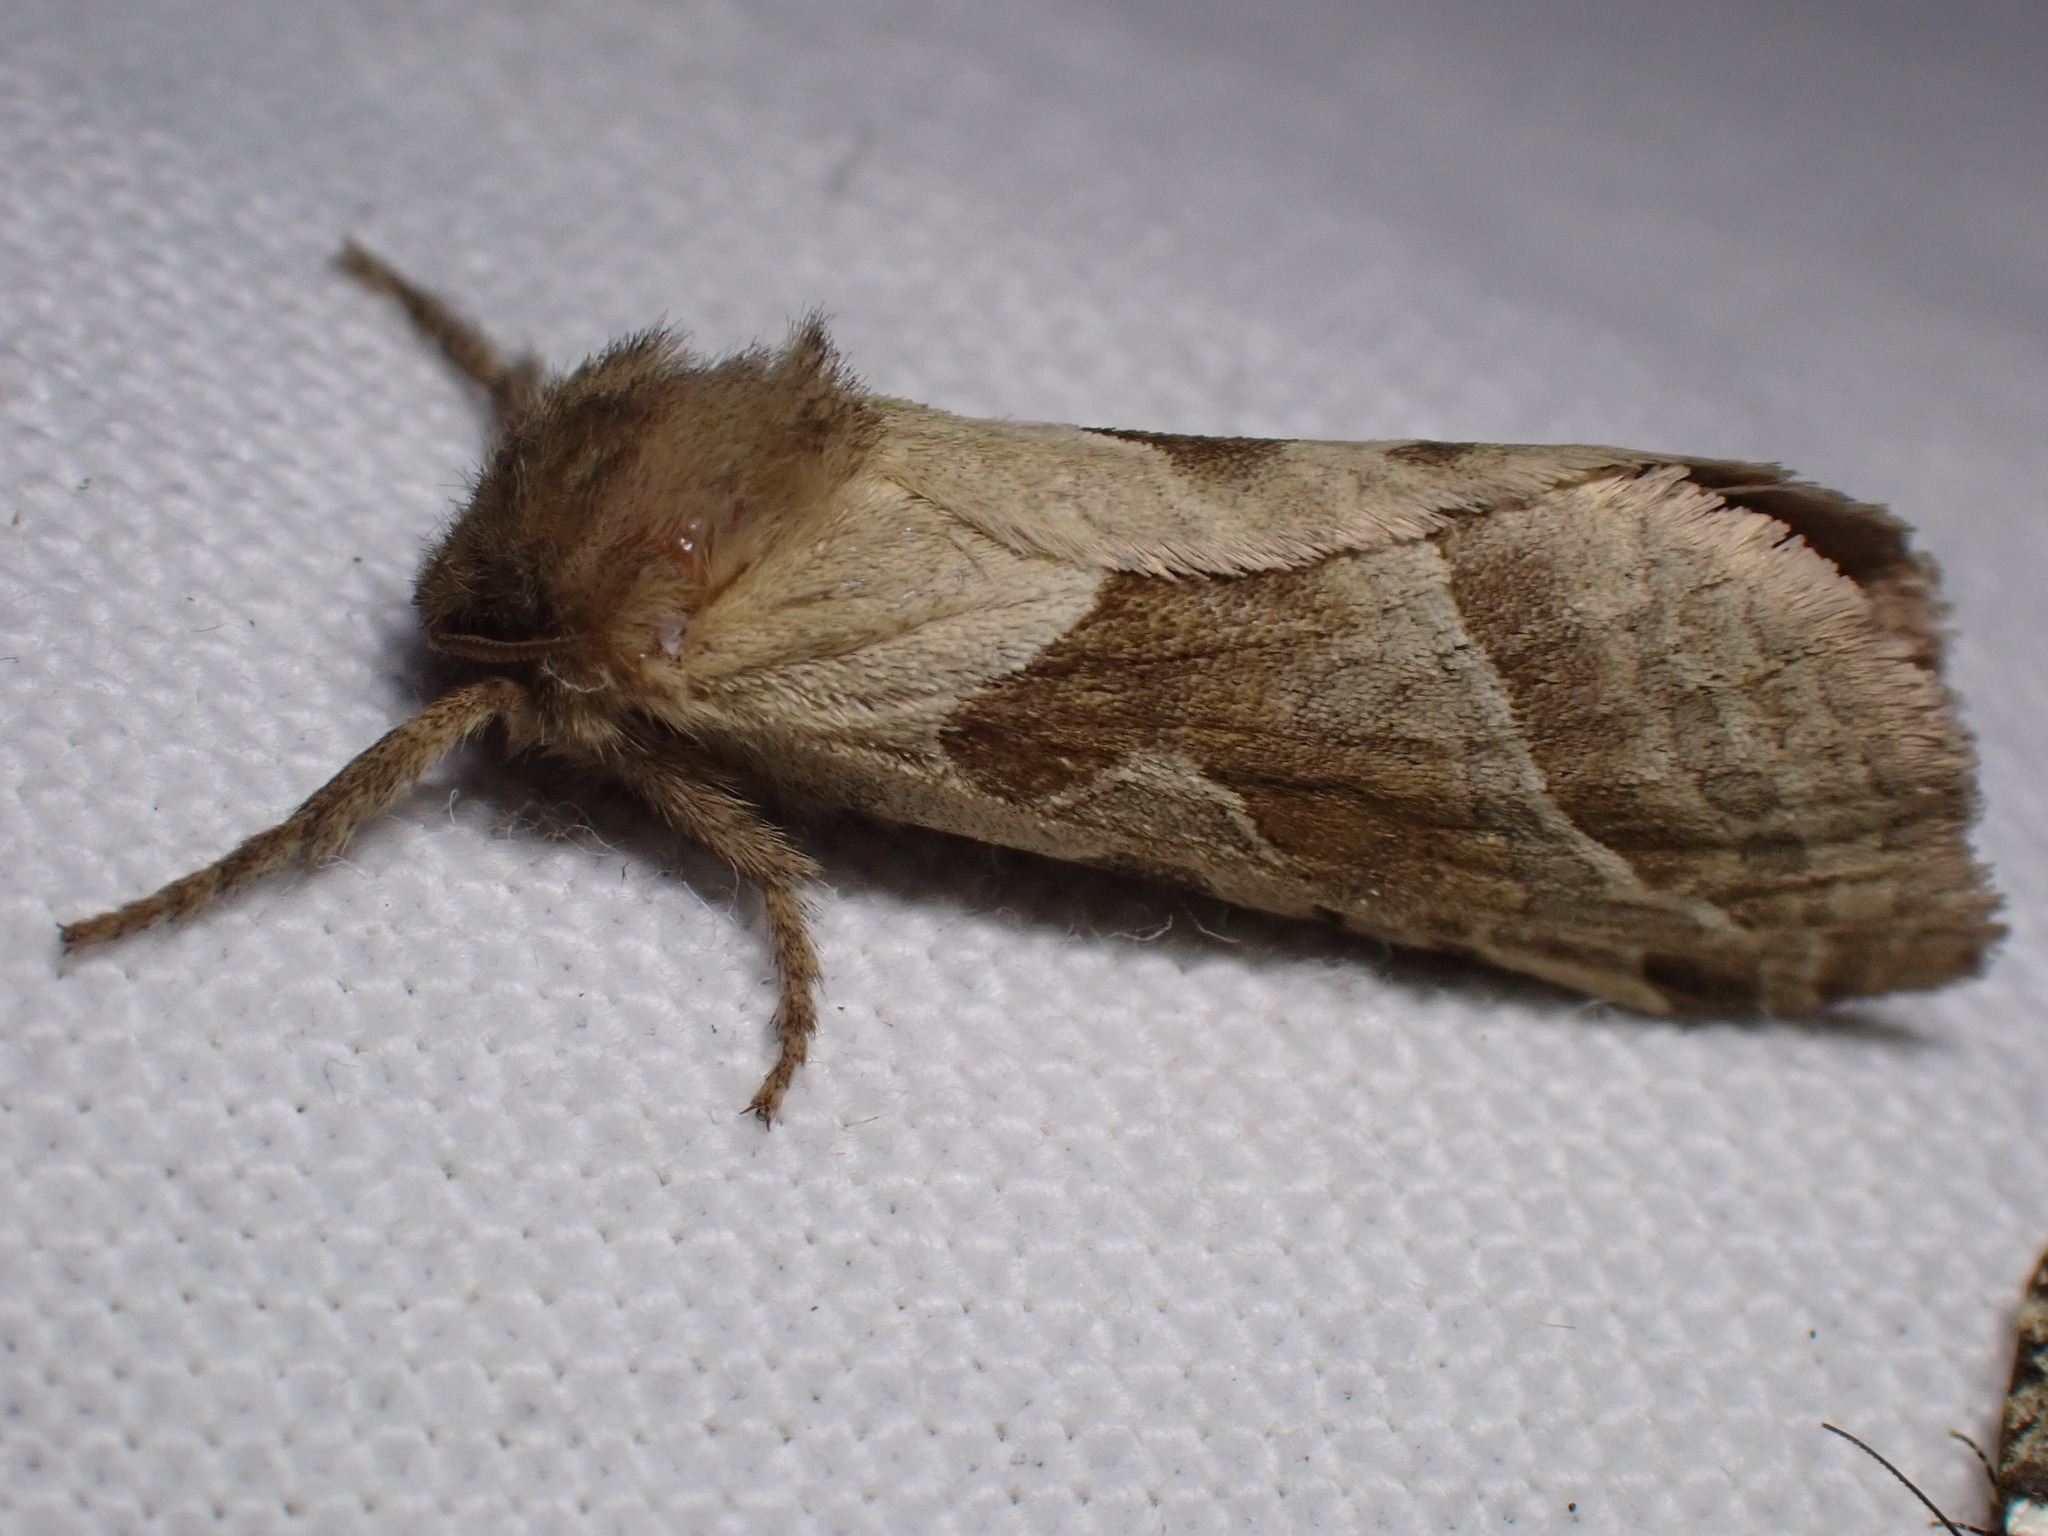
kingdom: Animalia
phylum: Arthropoda
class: Insecta
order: Lepidoptera
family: Hepialidae
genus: Triodia
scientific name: Triodia sylvina
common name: Orange swift
